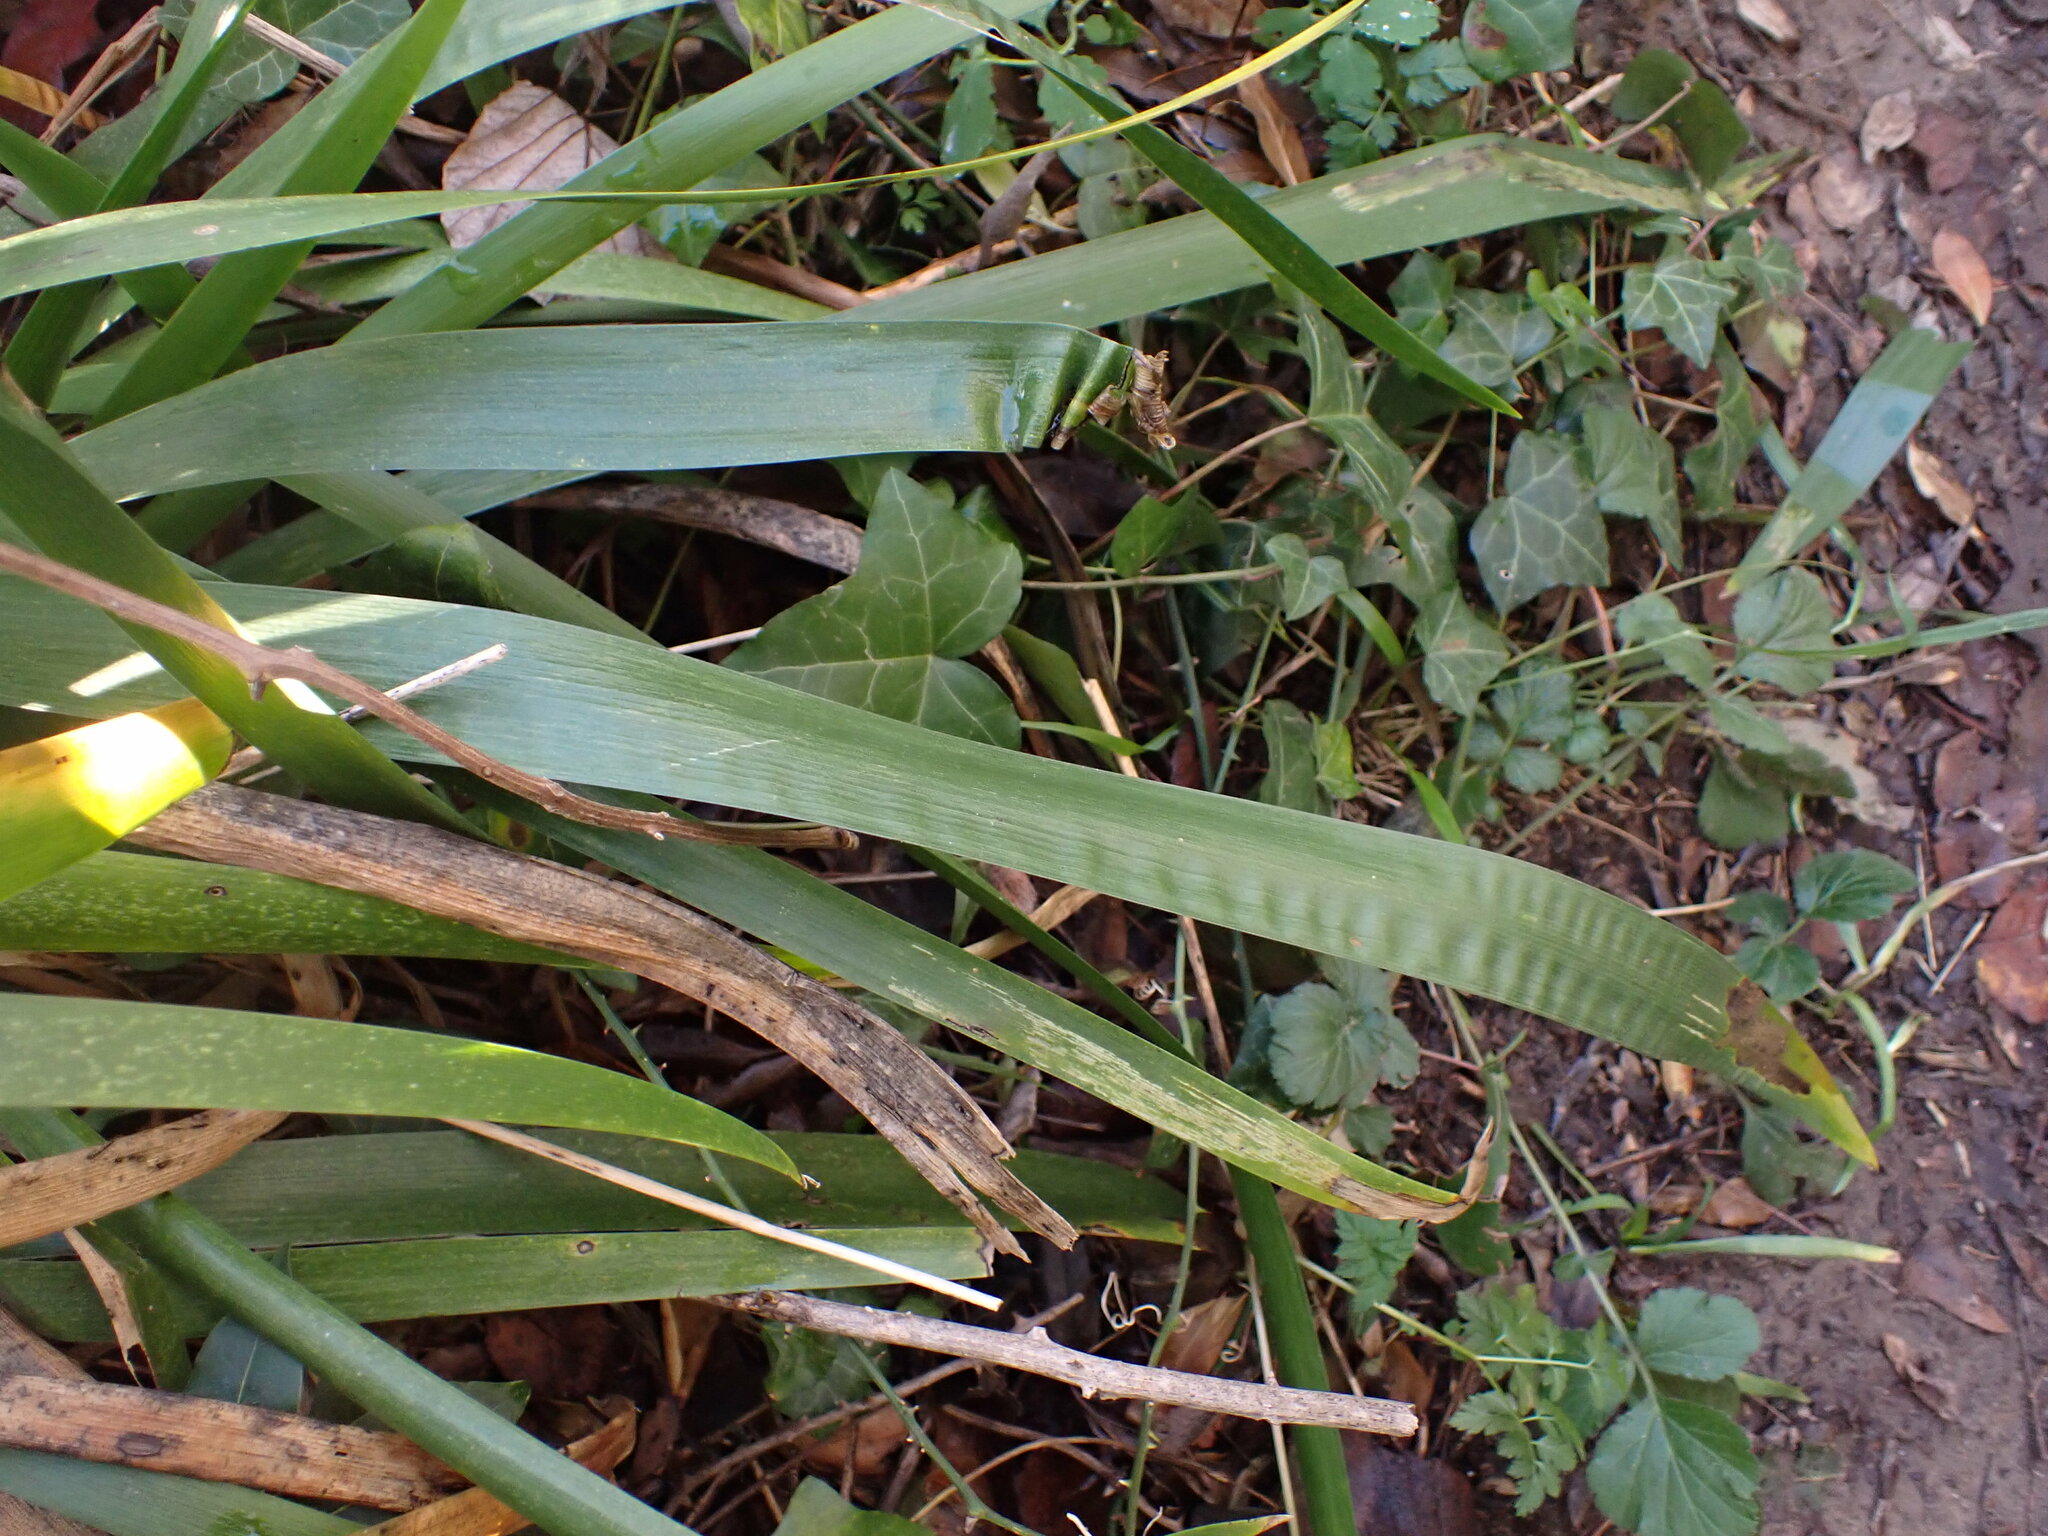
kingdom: Plantae
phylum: Tracheophyta
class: Liliopsida
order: Asparagales
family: Iridaceae
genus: Iris
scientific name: Iris foetidissima
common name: Stinking iris
